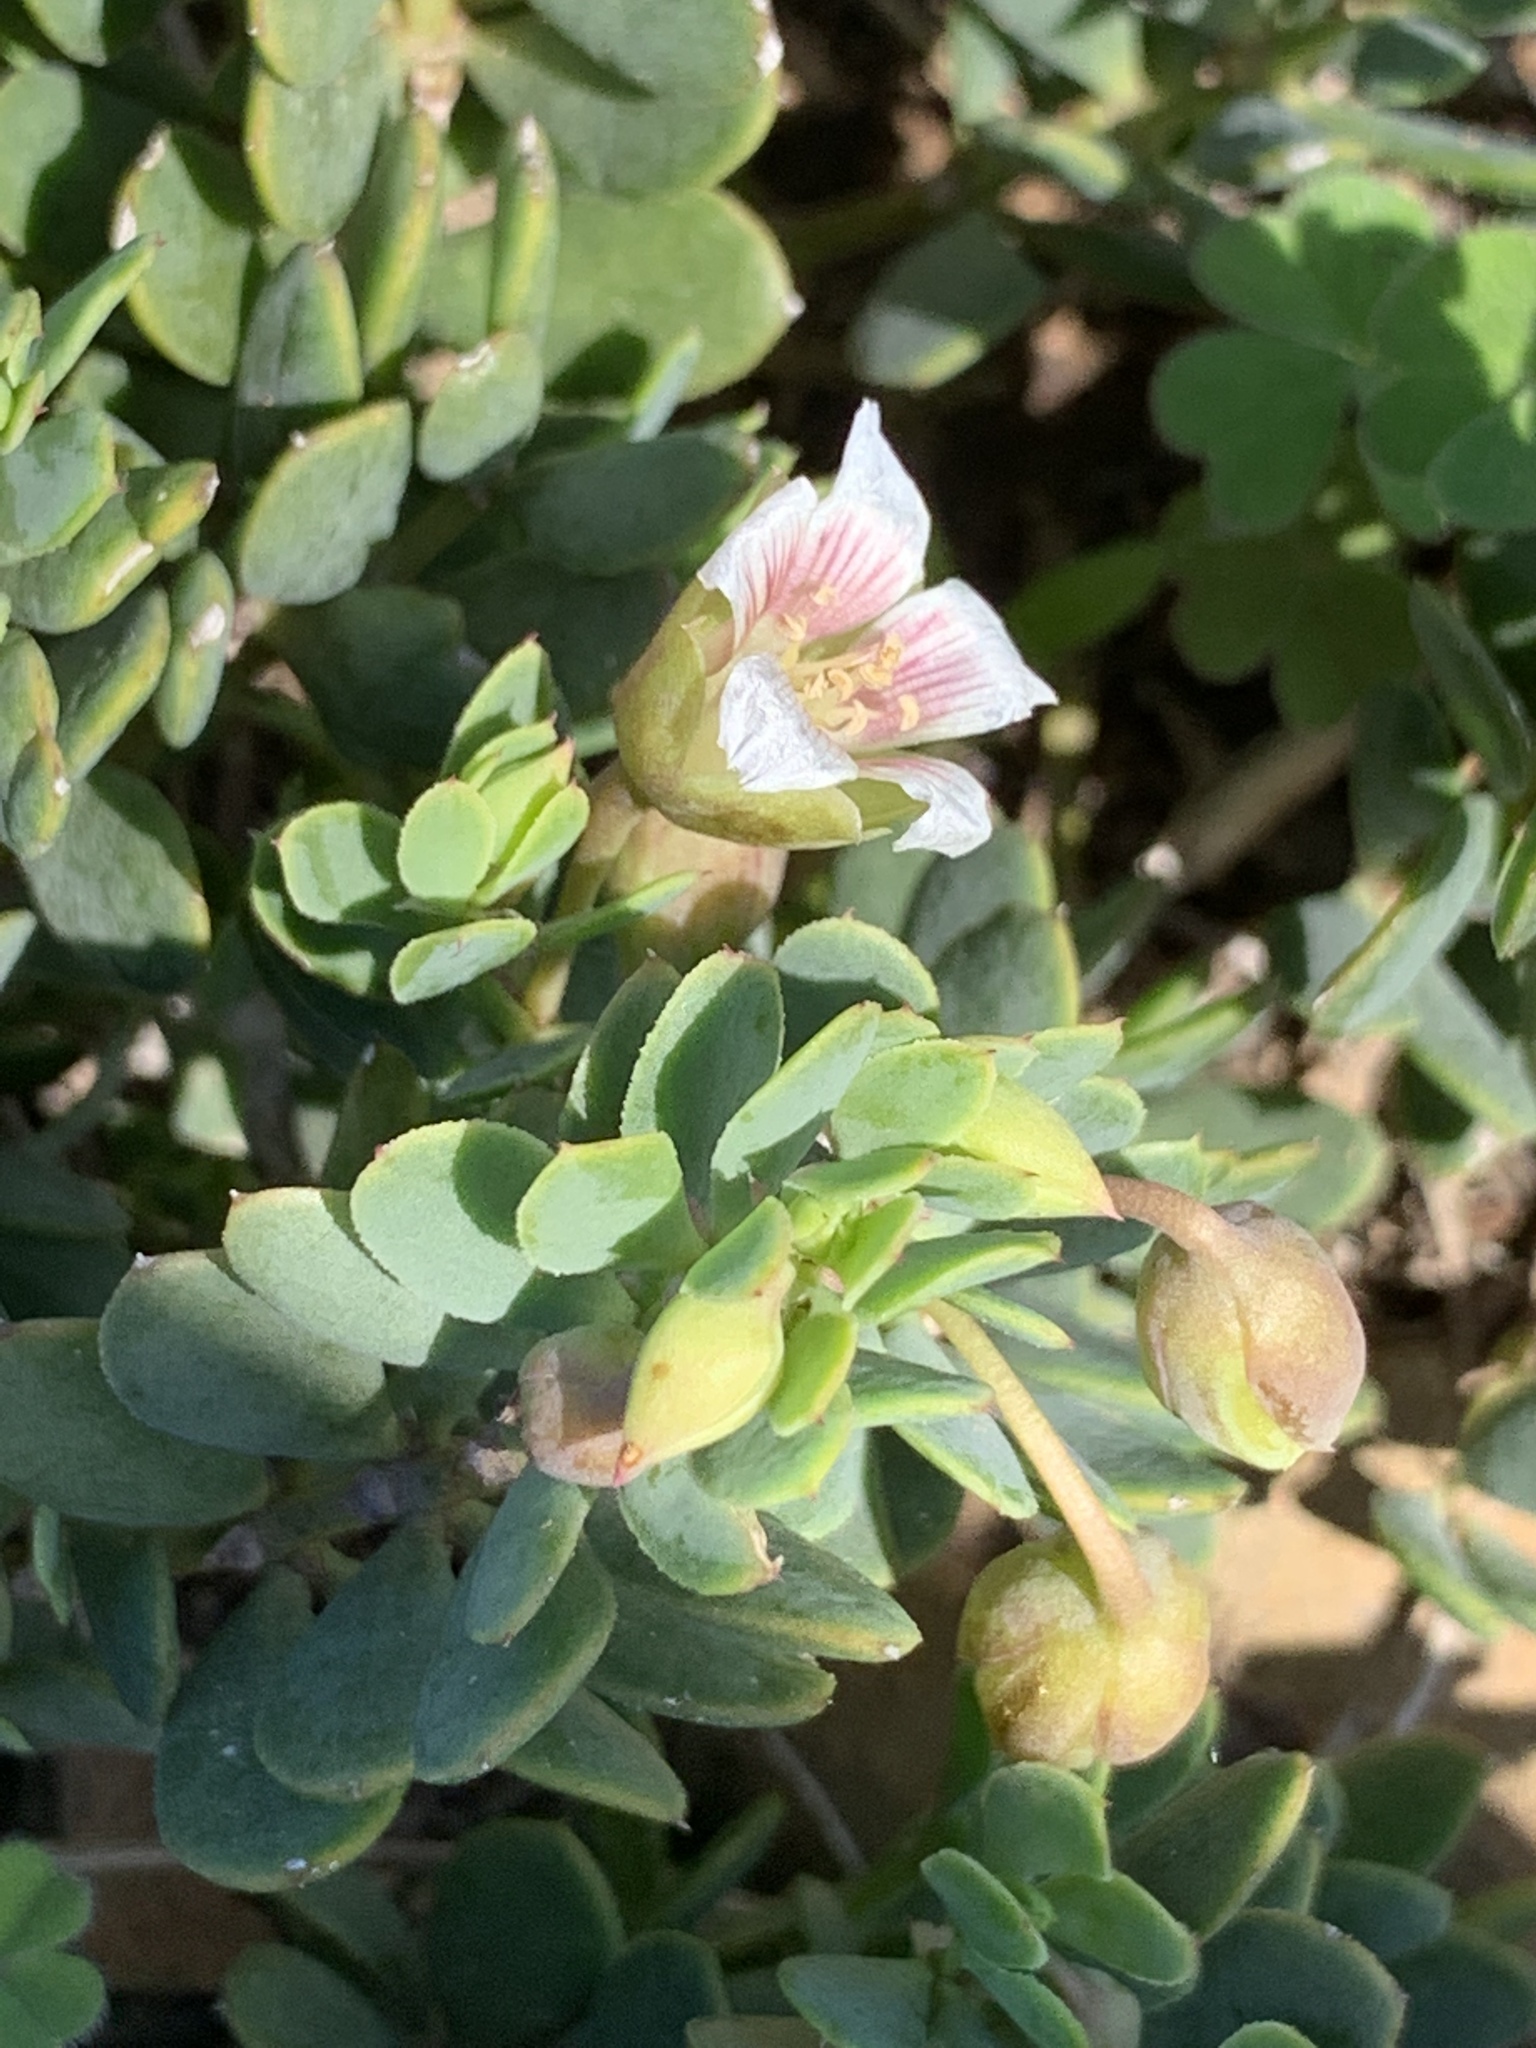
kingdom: Plantae
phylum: Tracheophyta
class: Magnoliopsida
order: Zygophyllales
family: Zygophyllaceae
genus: Roepera
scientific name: Roepera sessilifolia
